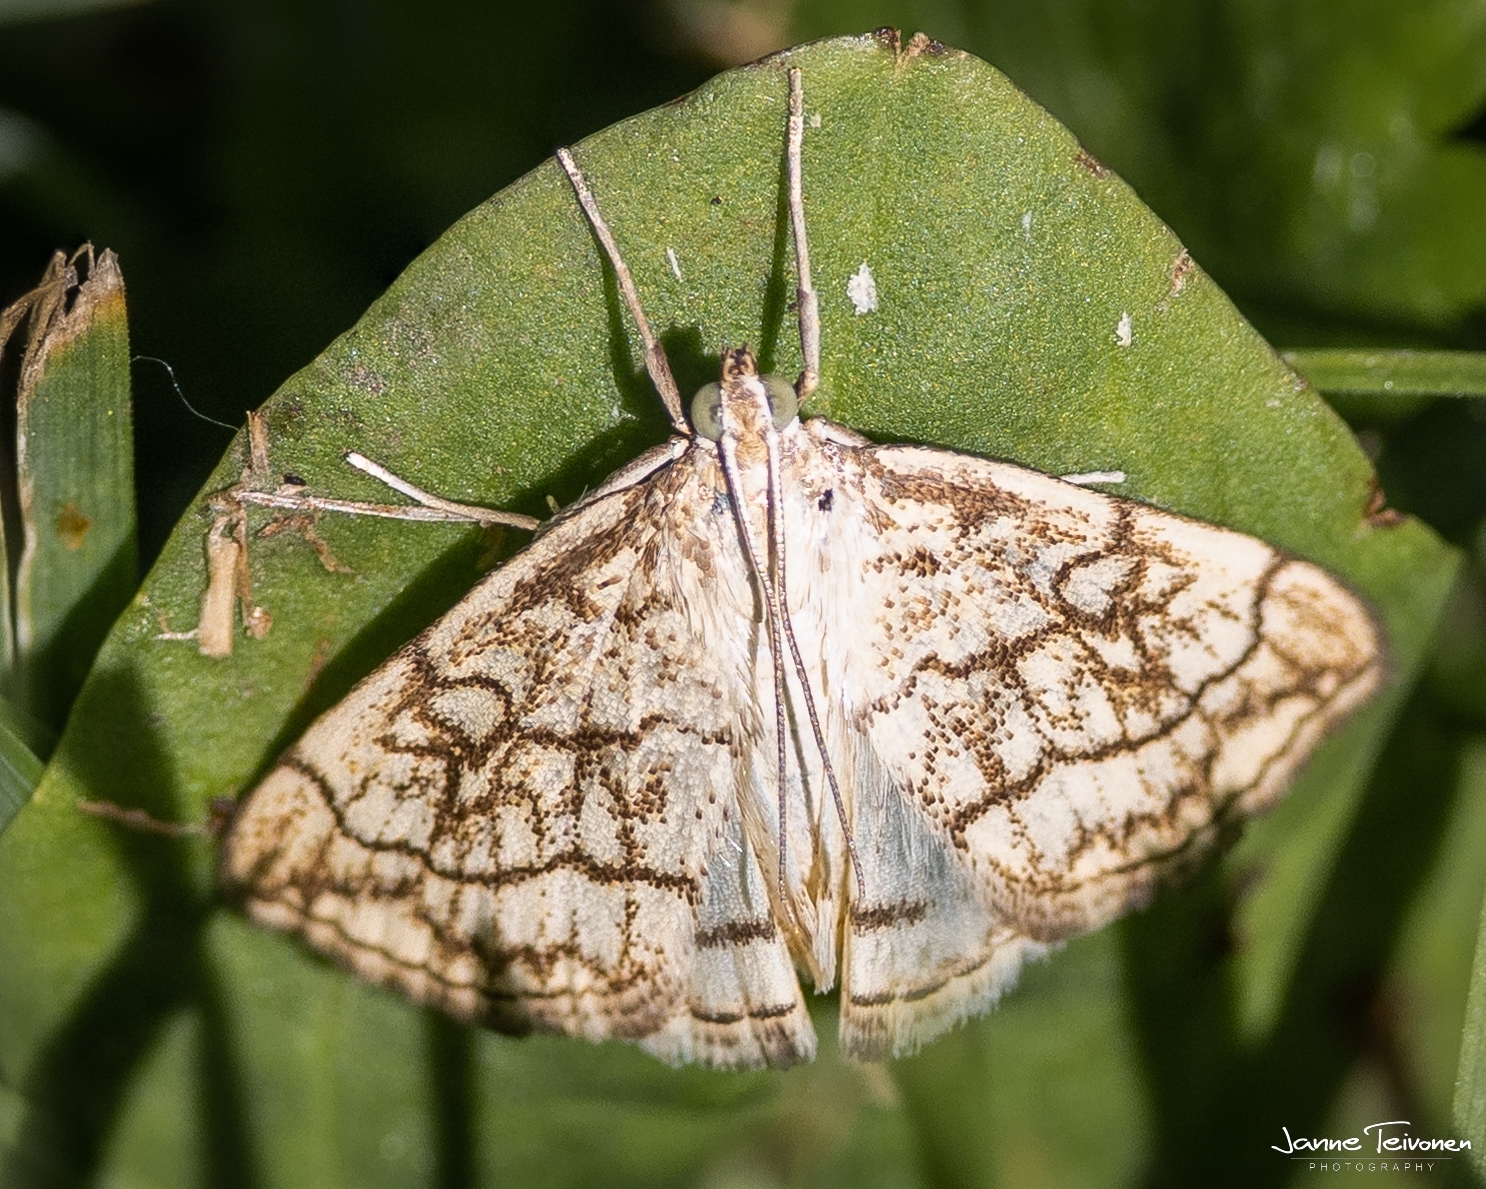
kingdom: Animalia
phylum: Arthropoda
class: Insecta
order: Lepidoptera
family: Crambidae
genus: Evergestis
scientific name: Evergestis pallidata
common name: Chequered pearl
